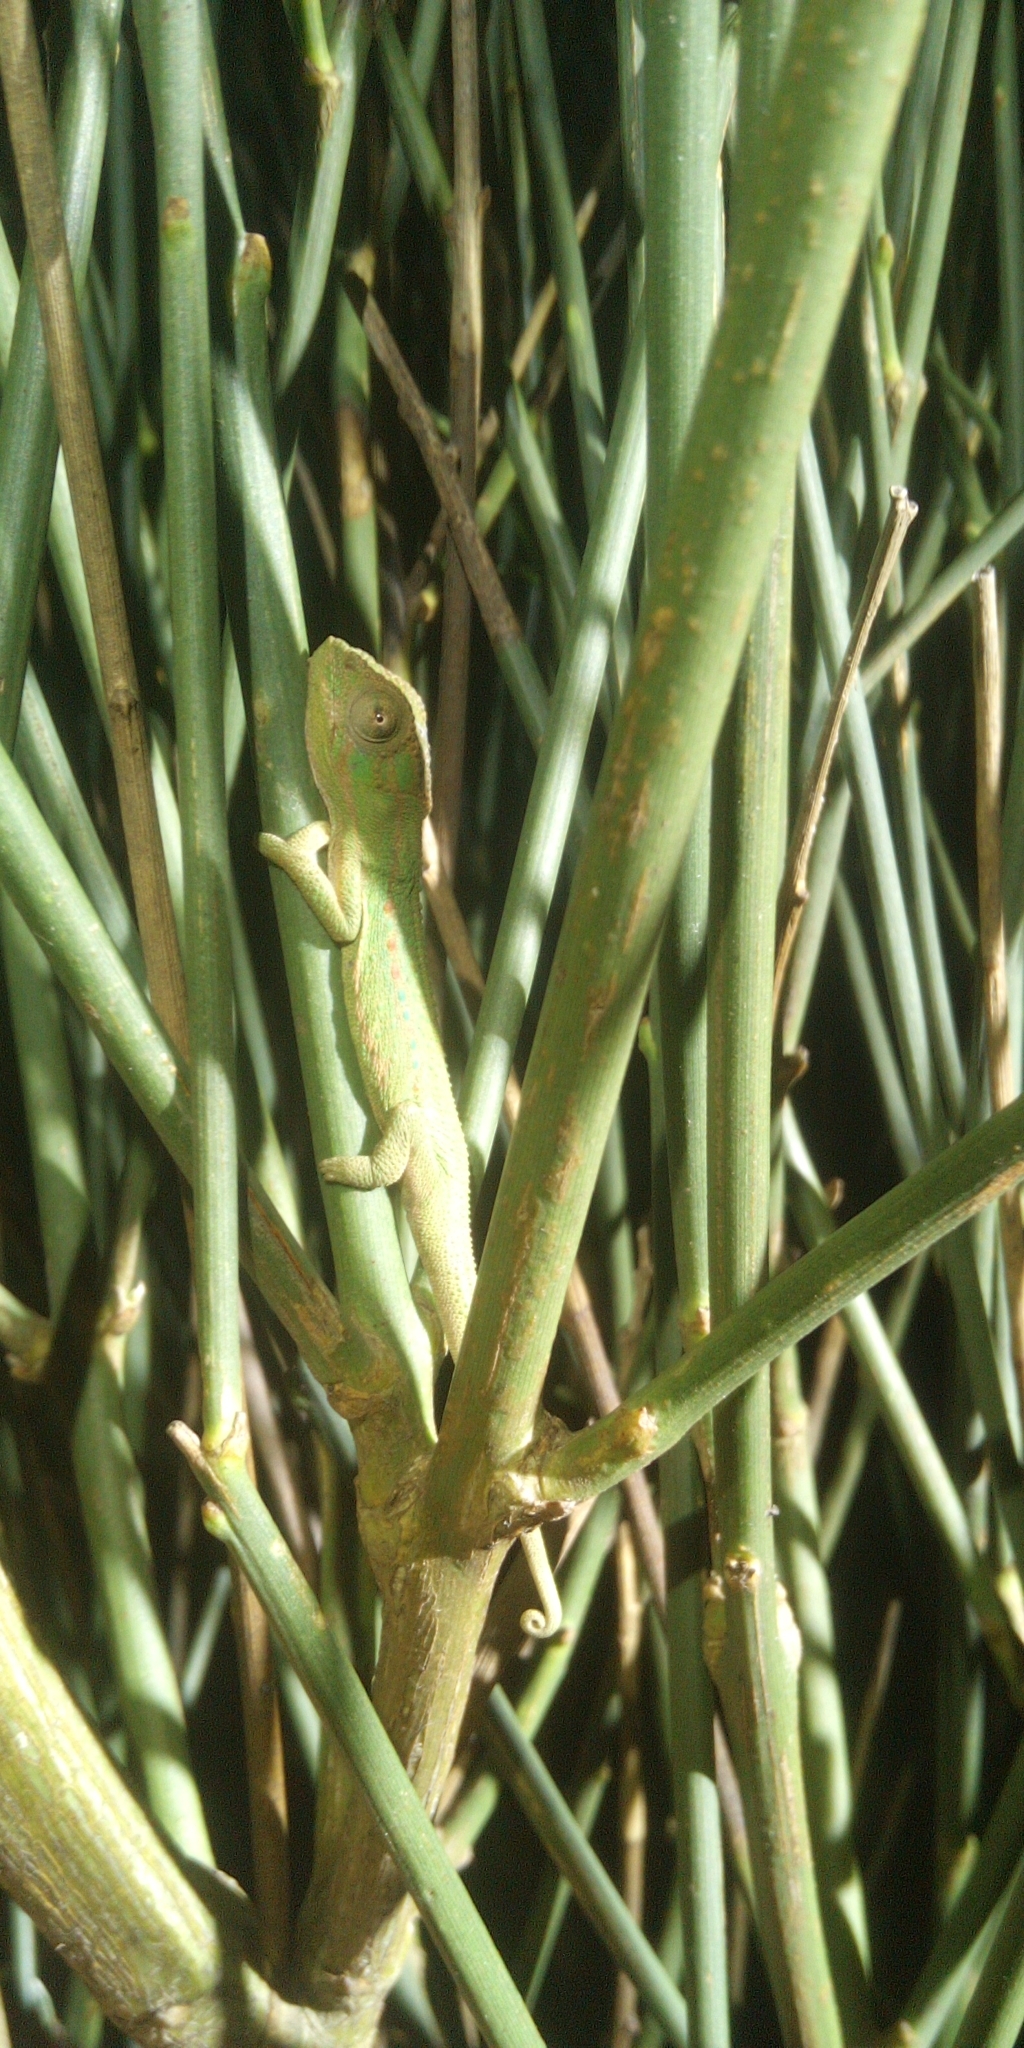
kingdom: Animalia
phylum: Chordata
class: Squamata
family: Chamaeleonidae
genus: Bradypodion
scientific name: Bradypodion pumilum
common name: Cape dwarf chameleon
